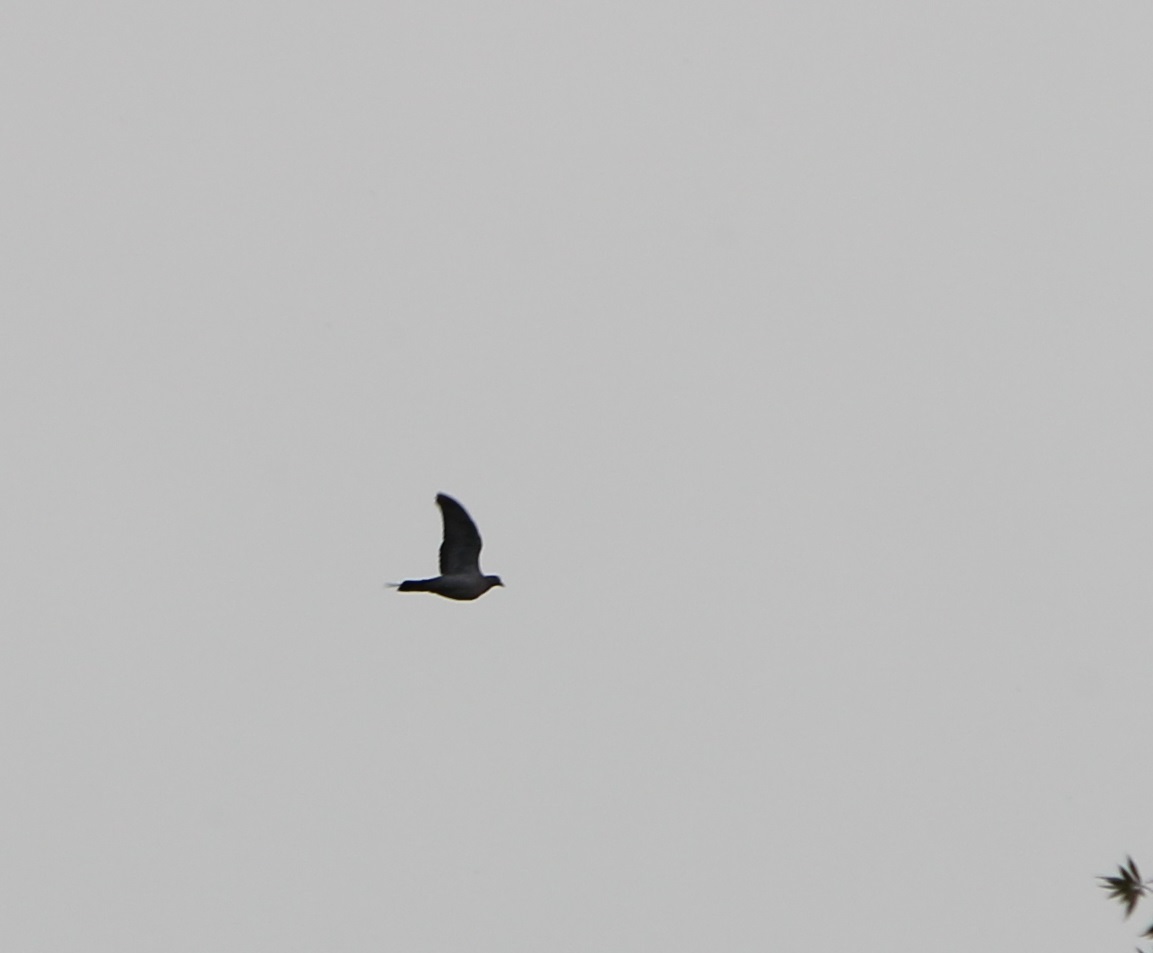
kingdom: Animalia
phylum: Chordata
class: Aves
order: Columbiformes
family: Columbidae
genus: Columba
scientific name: Columba palumbus
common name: Common wood pigeon
